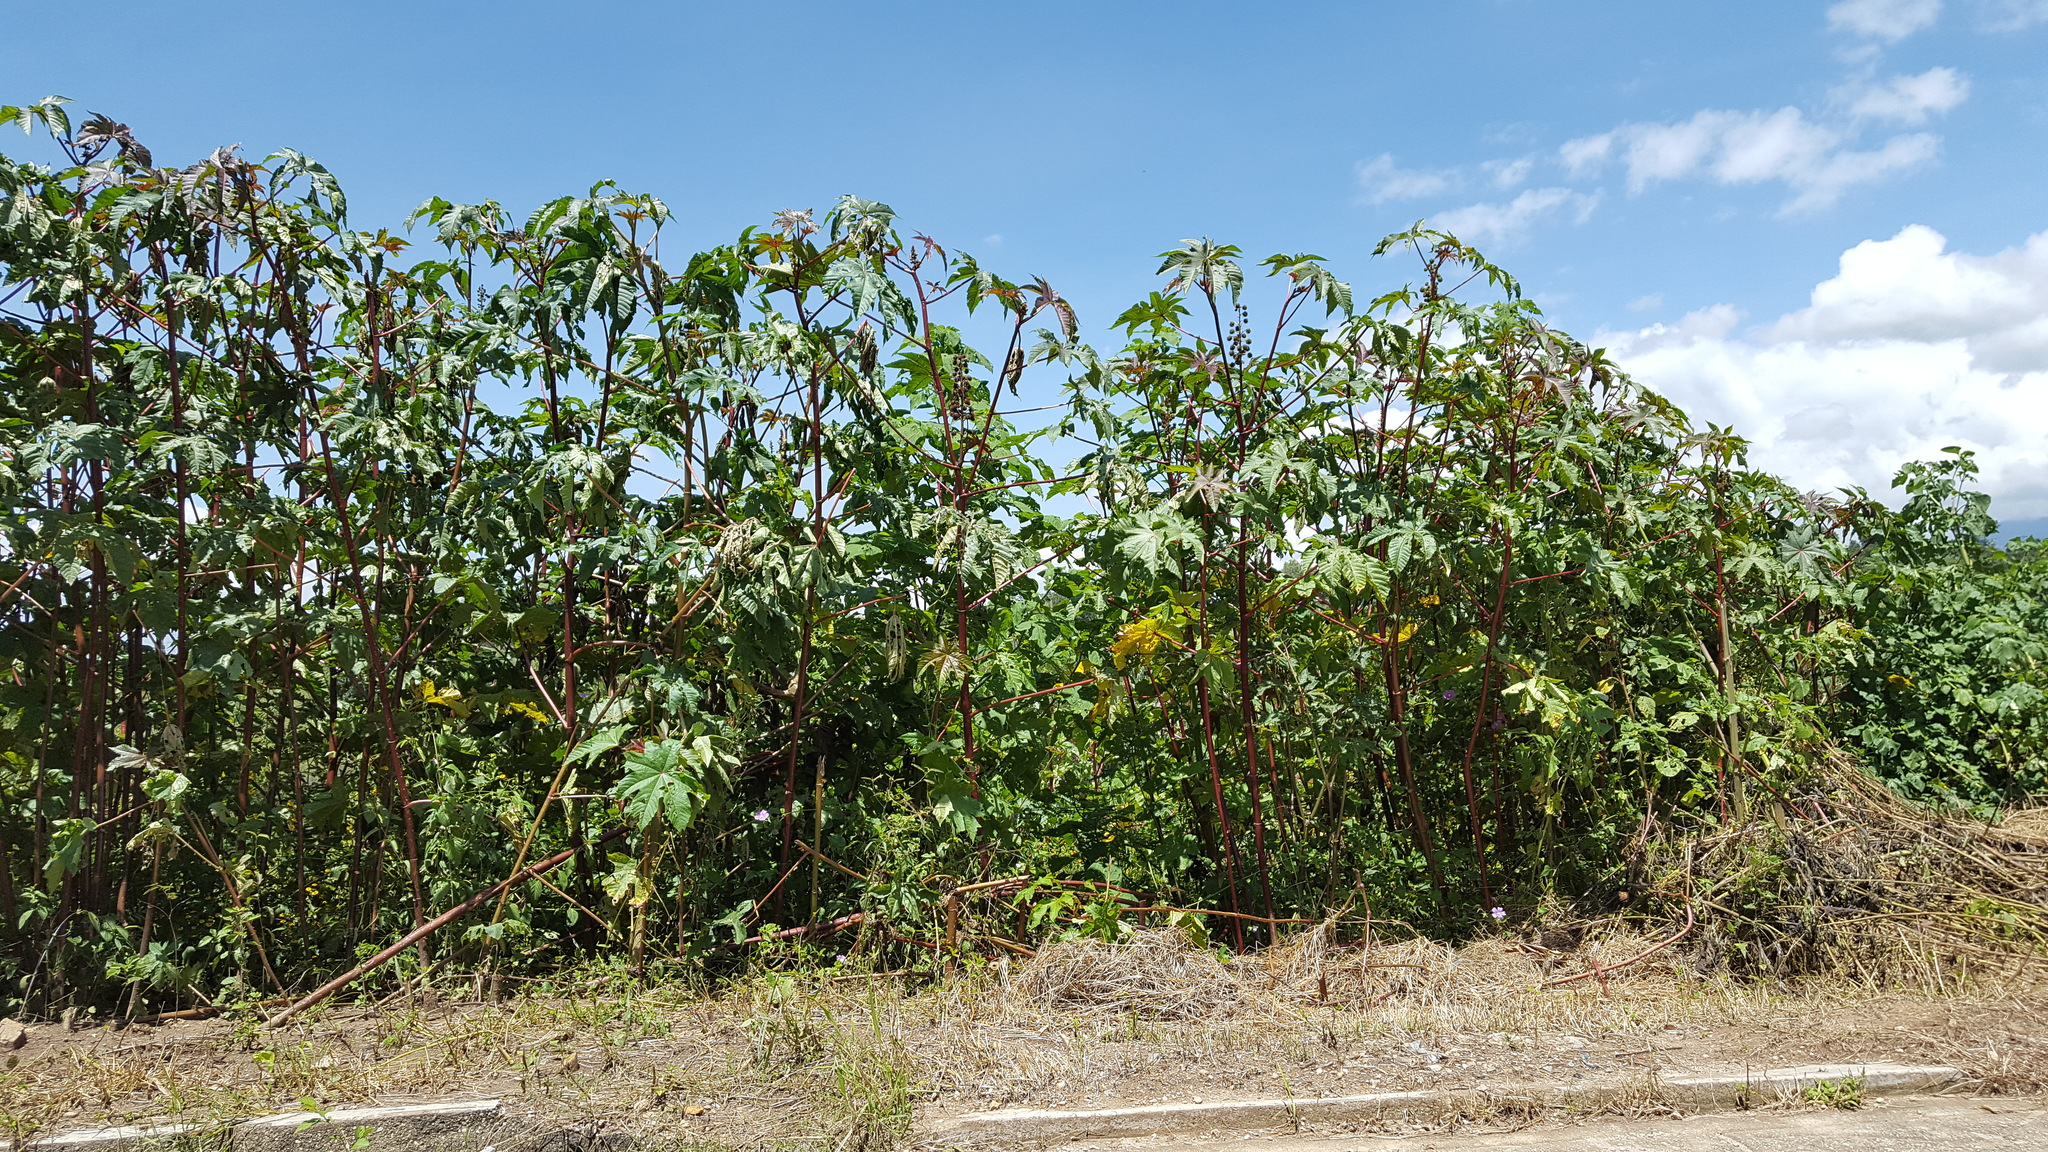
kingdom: Plantae
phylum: Tracheophyta
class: Magnoliopsida
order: Malpighiales
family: Euphorbiaceae
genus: Ricinus
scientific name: Ricinus communis
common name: Castor-oil-plant
